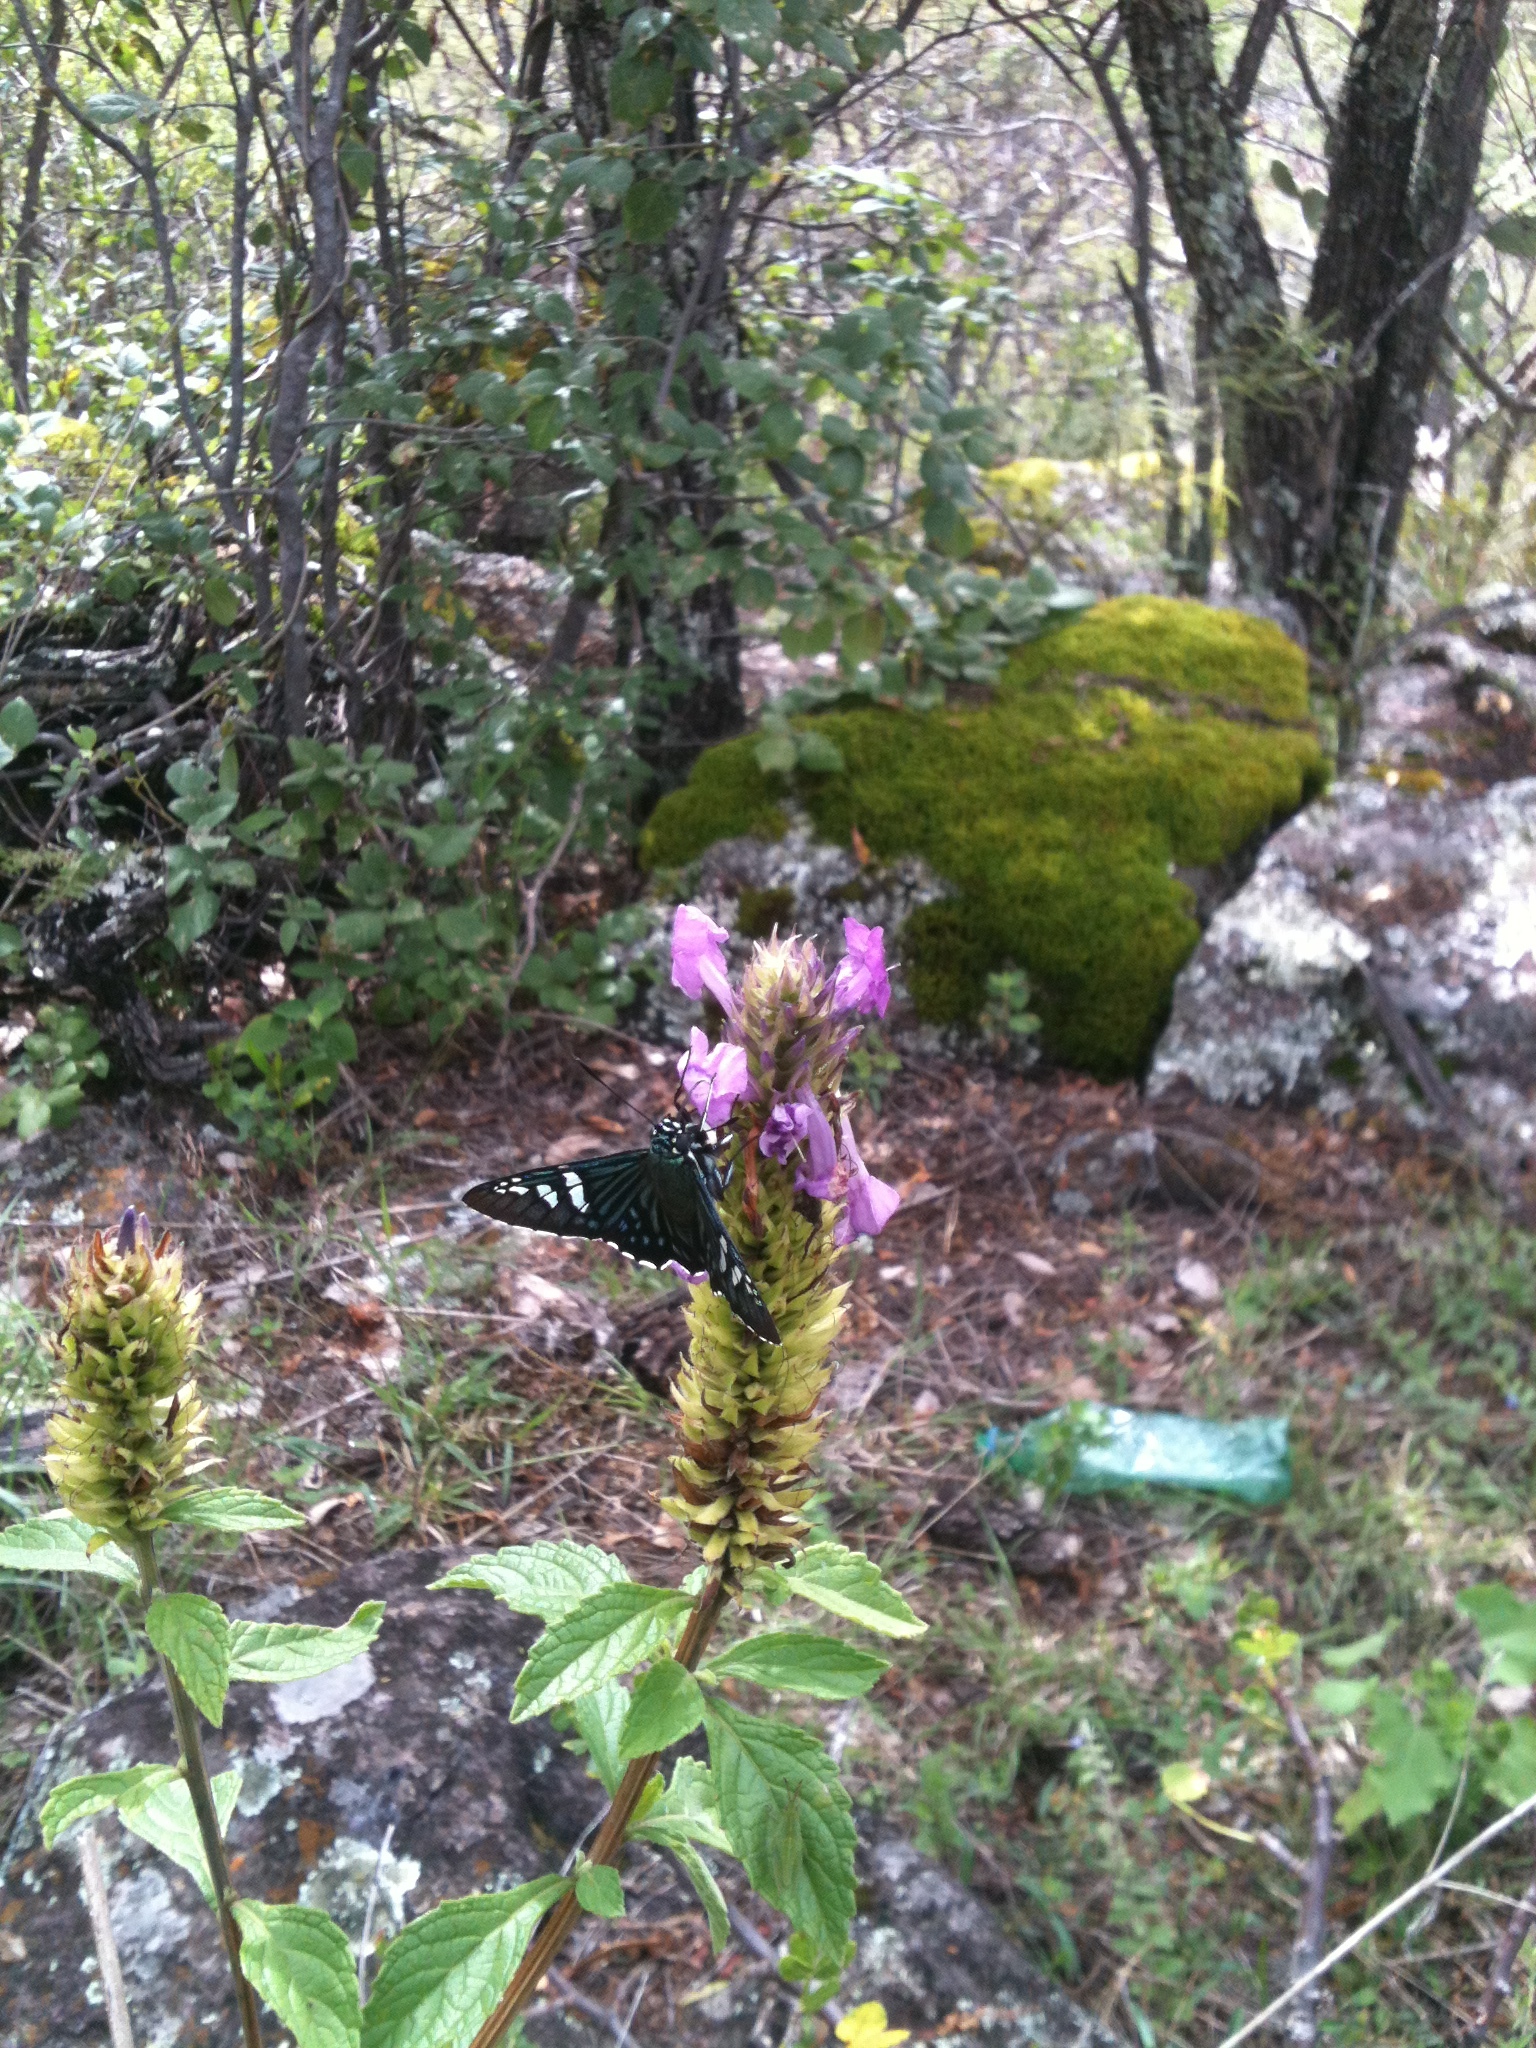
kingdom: Animalia
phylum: Arthropoda
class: Insecta
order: Lepidoptera
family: Hesperiidae
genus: Phocides
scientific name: Phocides urania
